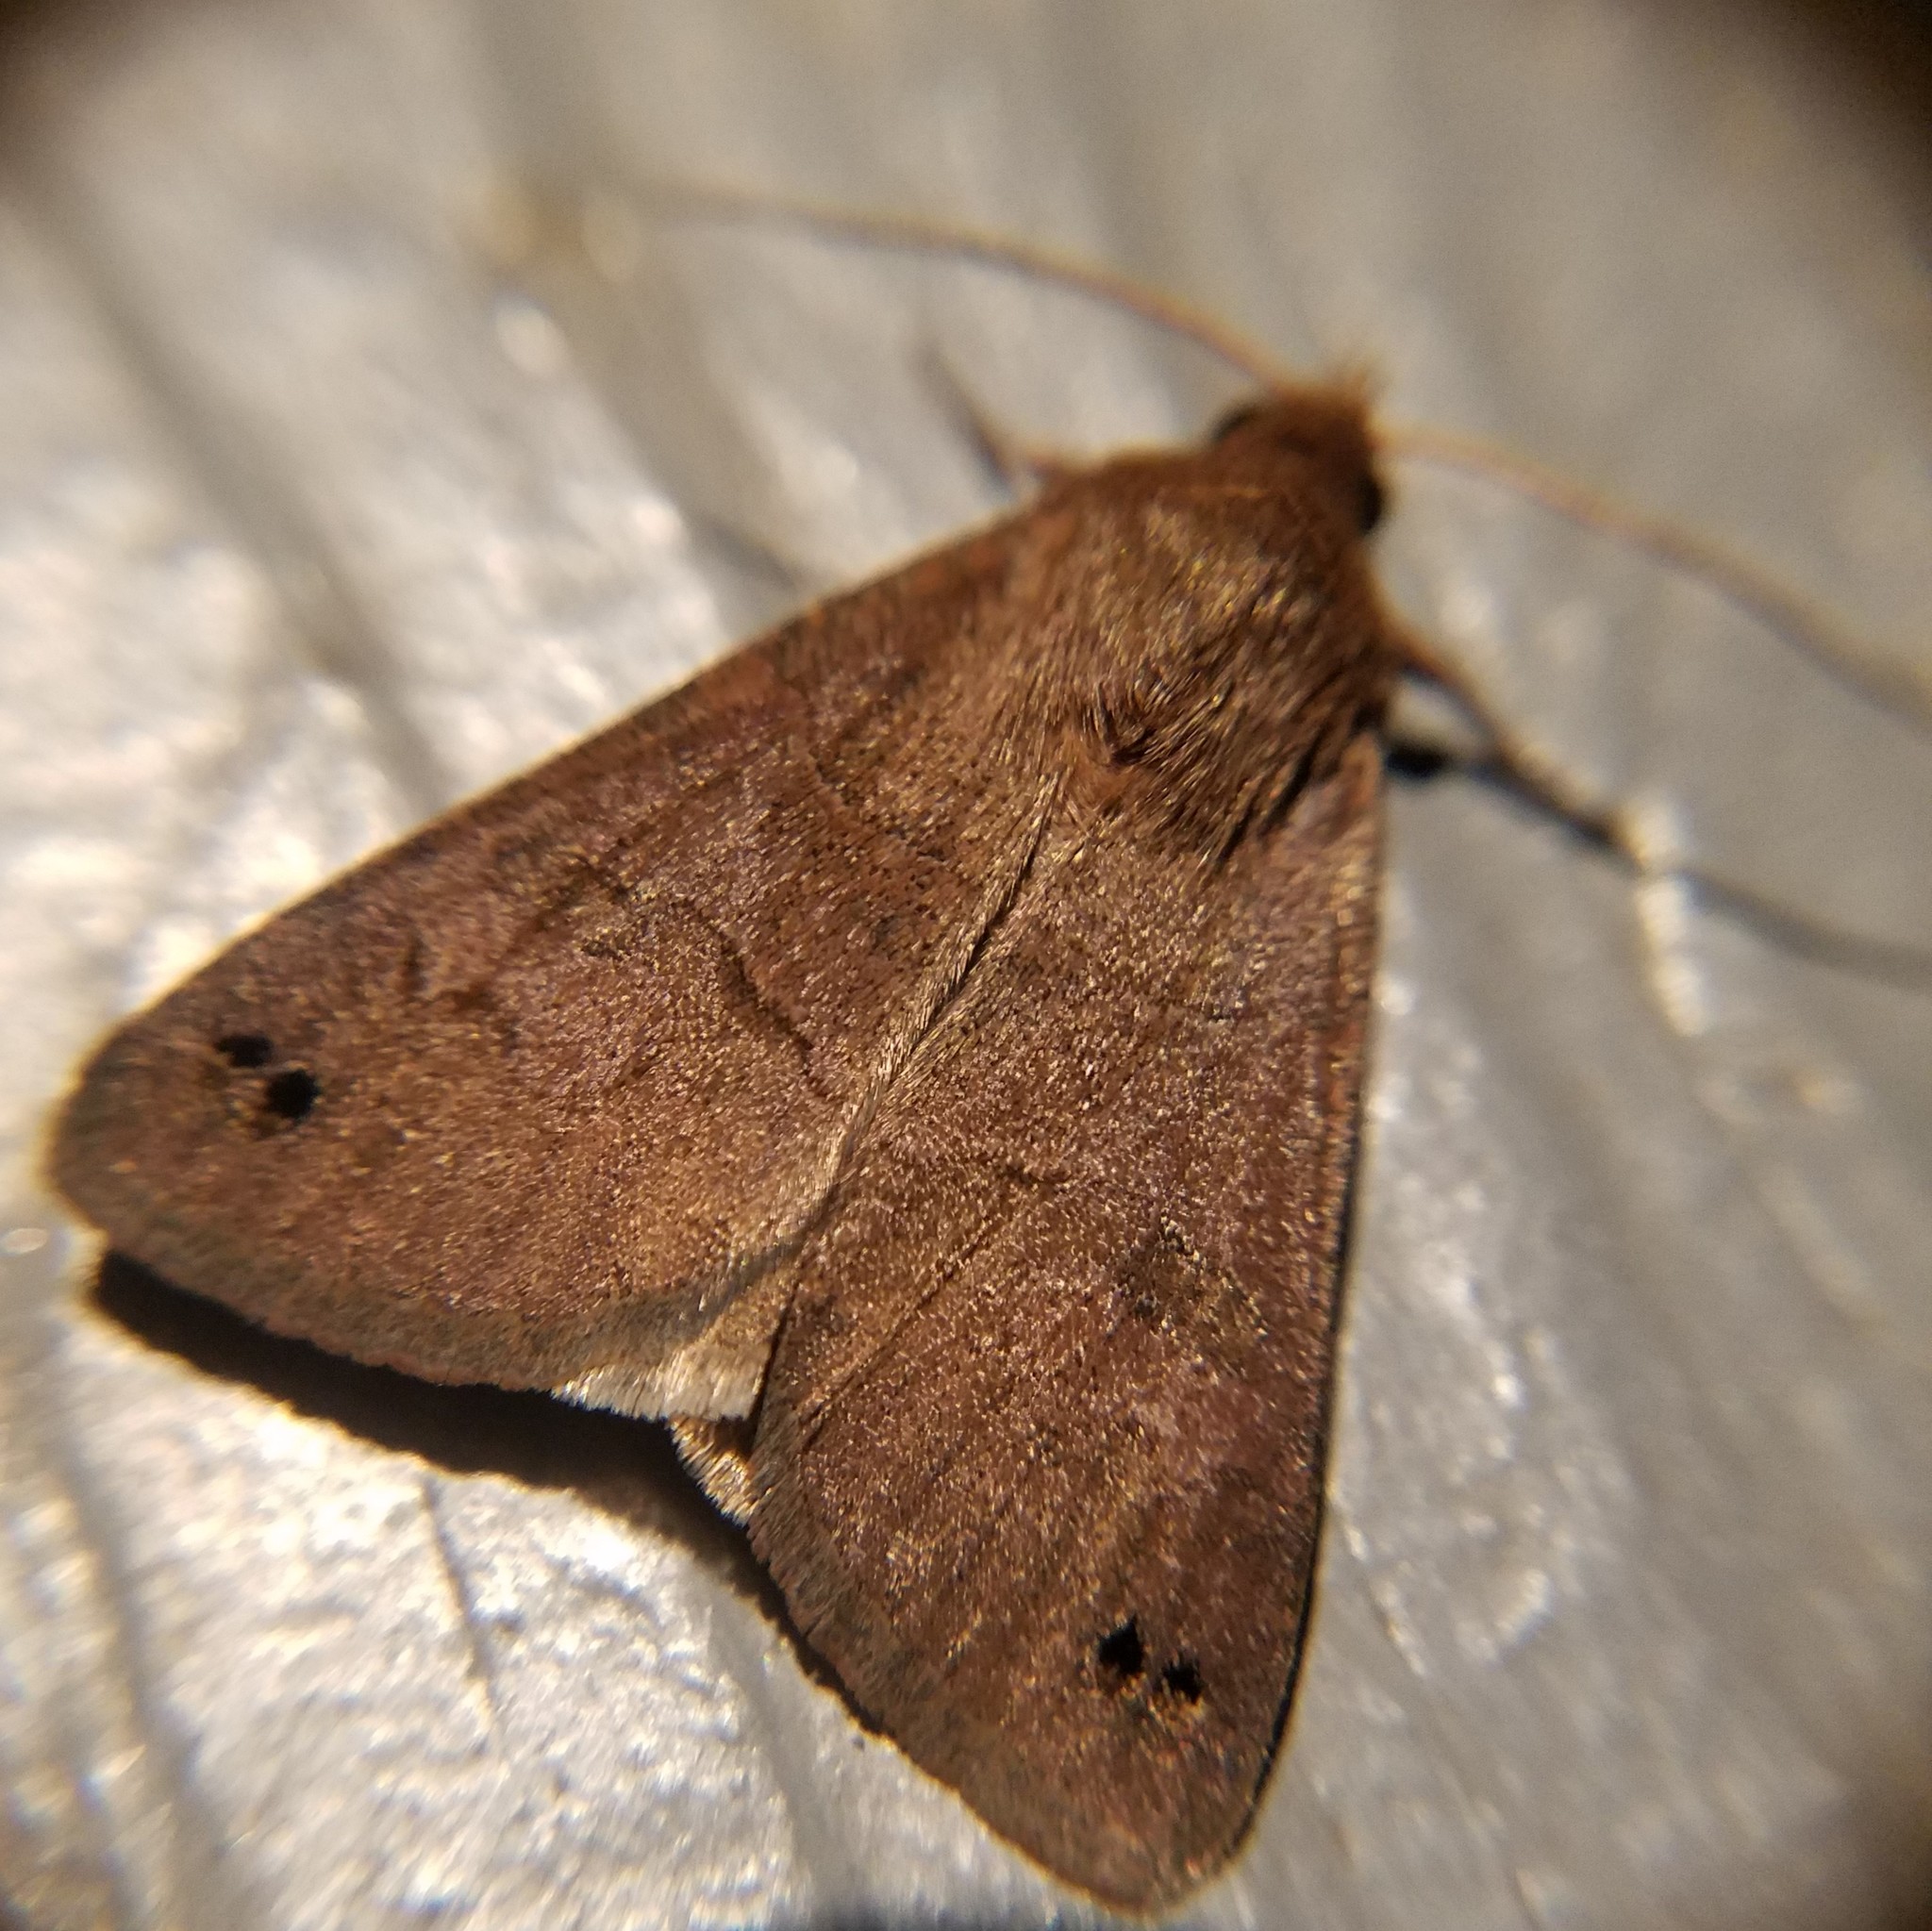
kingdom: Animalia
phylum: Arthropoda
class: Insecta
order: Lepidoptera
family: Erebidae
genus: Cissusa
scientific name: Cissusa spadix
